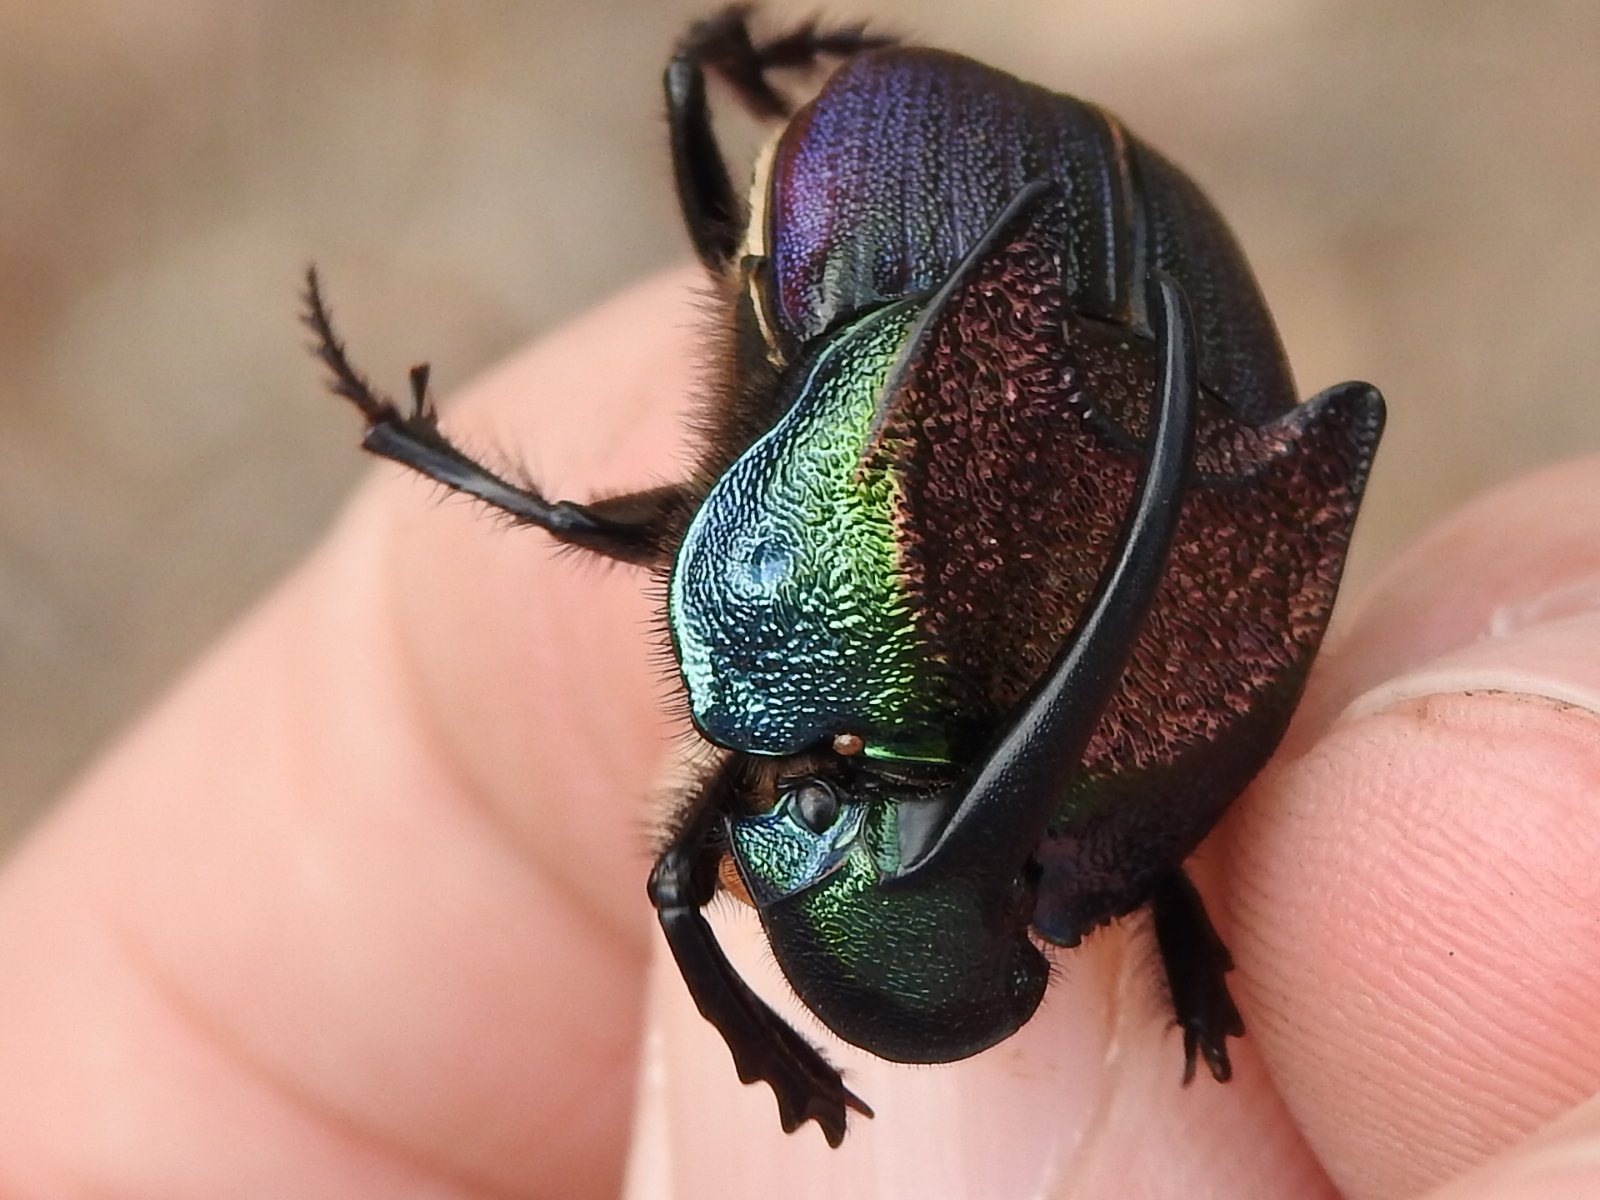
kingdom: Animalia
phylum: Arthropoda
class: Insecta
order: Coleoptera
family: Scarabaeidae
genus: Phanaeus
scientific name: Phanaeus difformis
